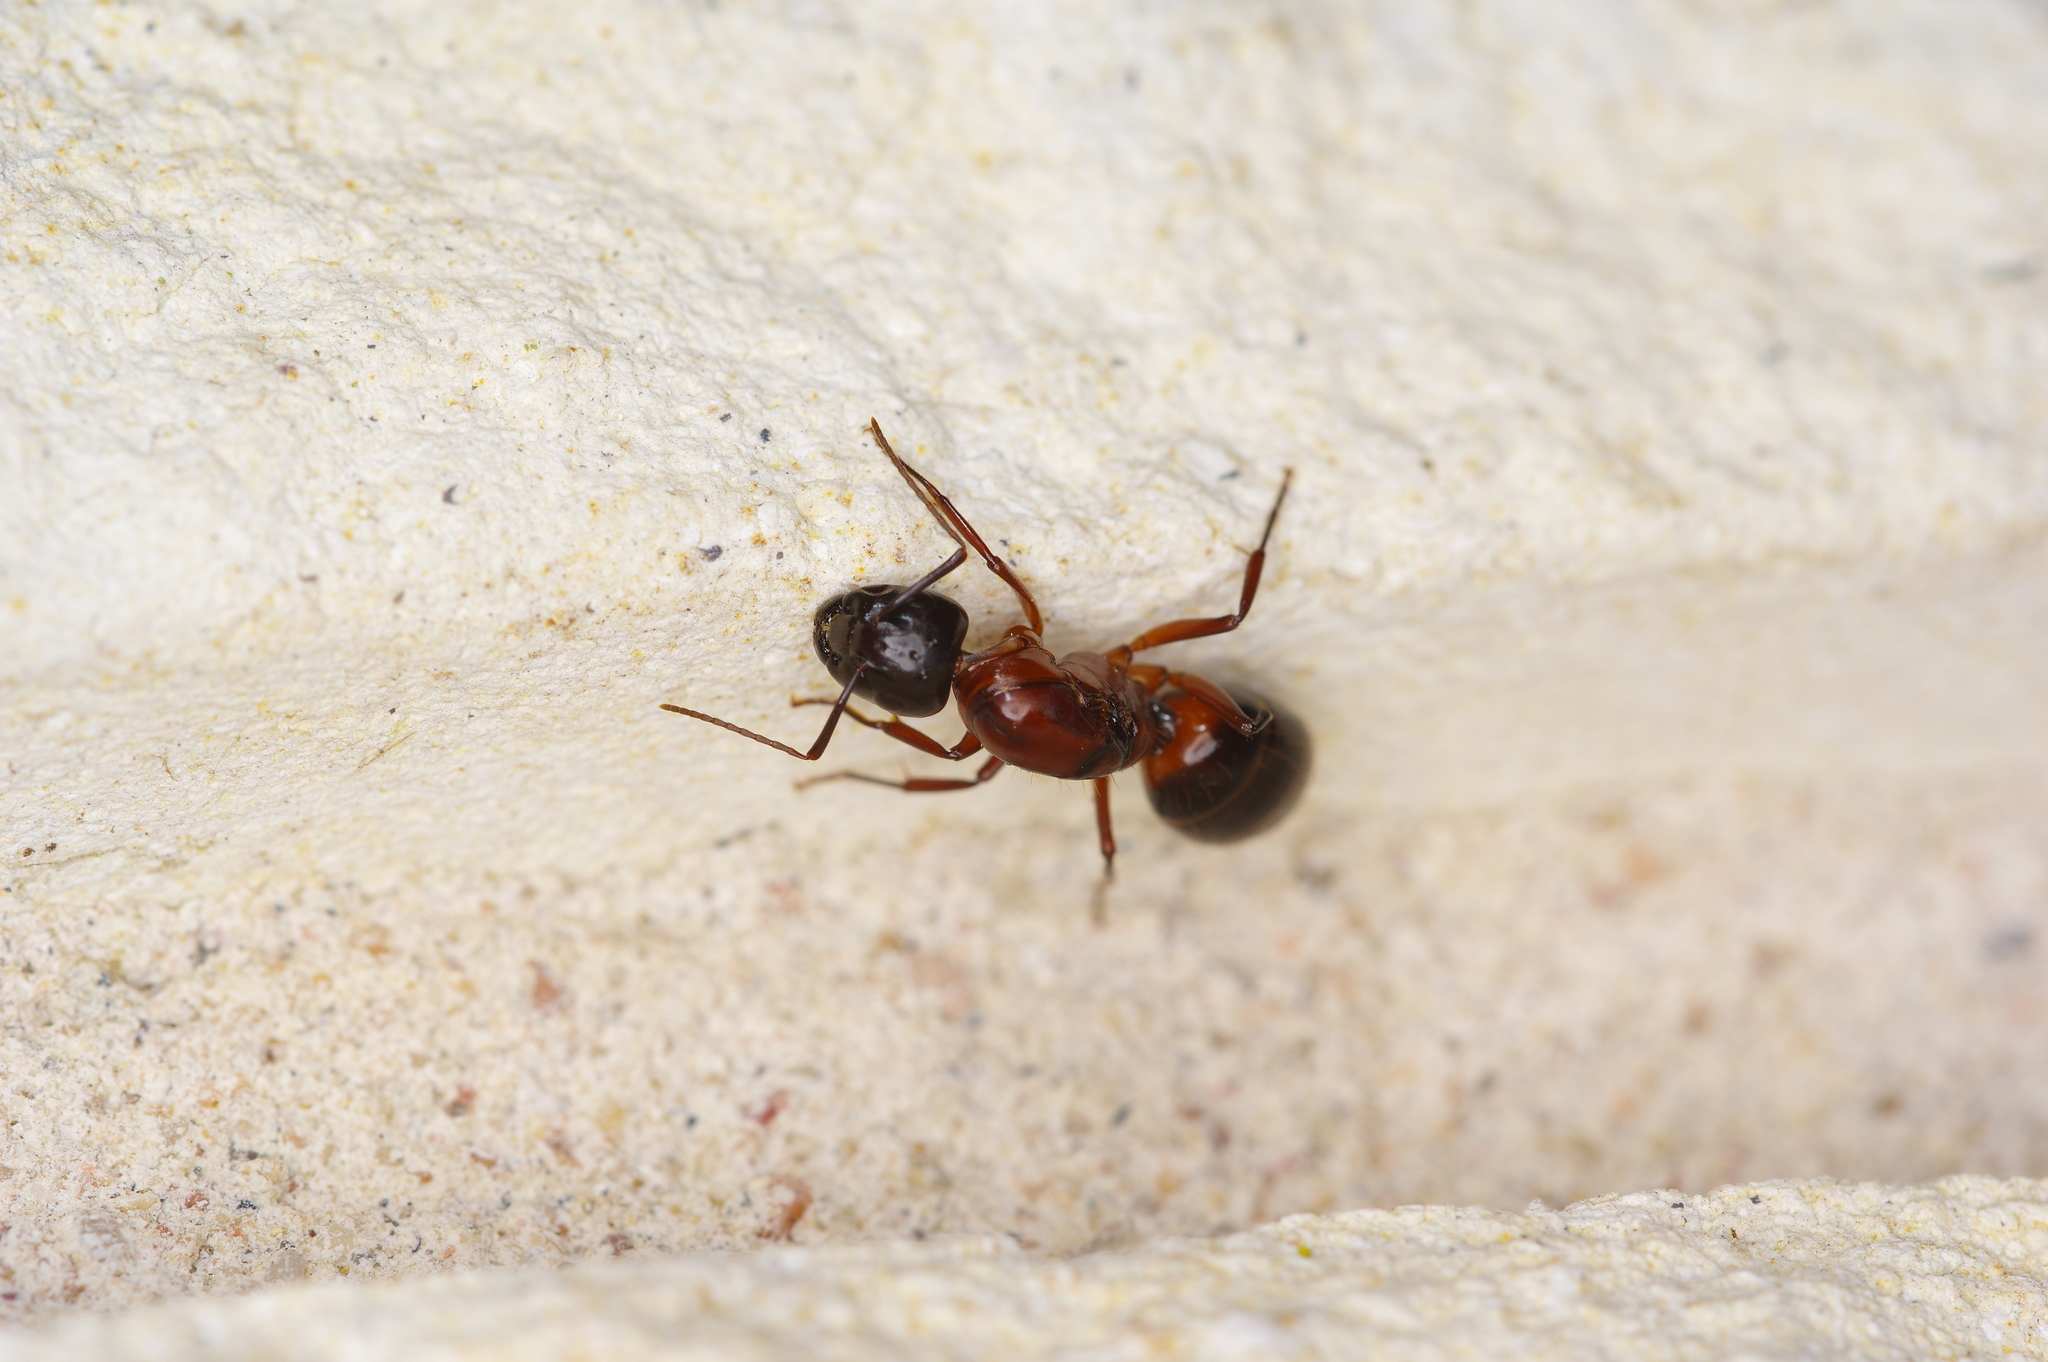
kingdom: Animalia
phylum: Arthropoda
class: Insecta
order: Hymenoptera
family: Formicidae
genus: Camponotus
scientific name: Camponotus texanus
